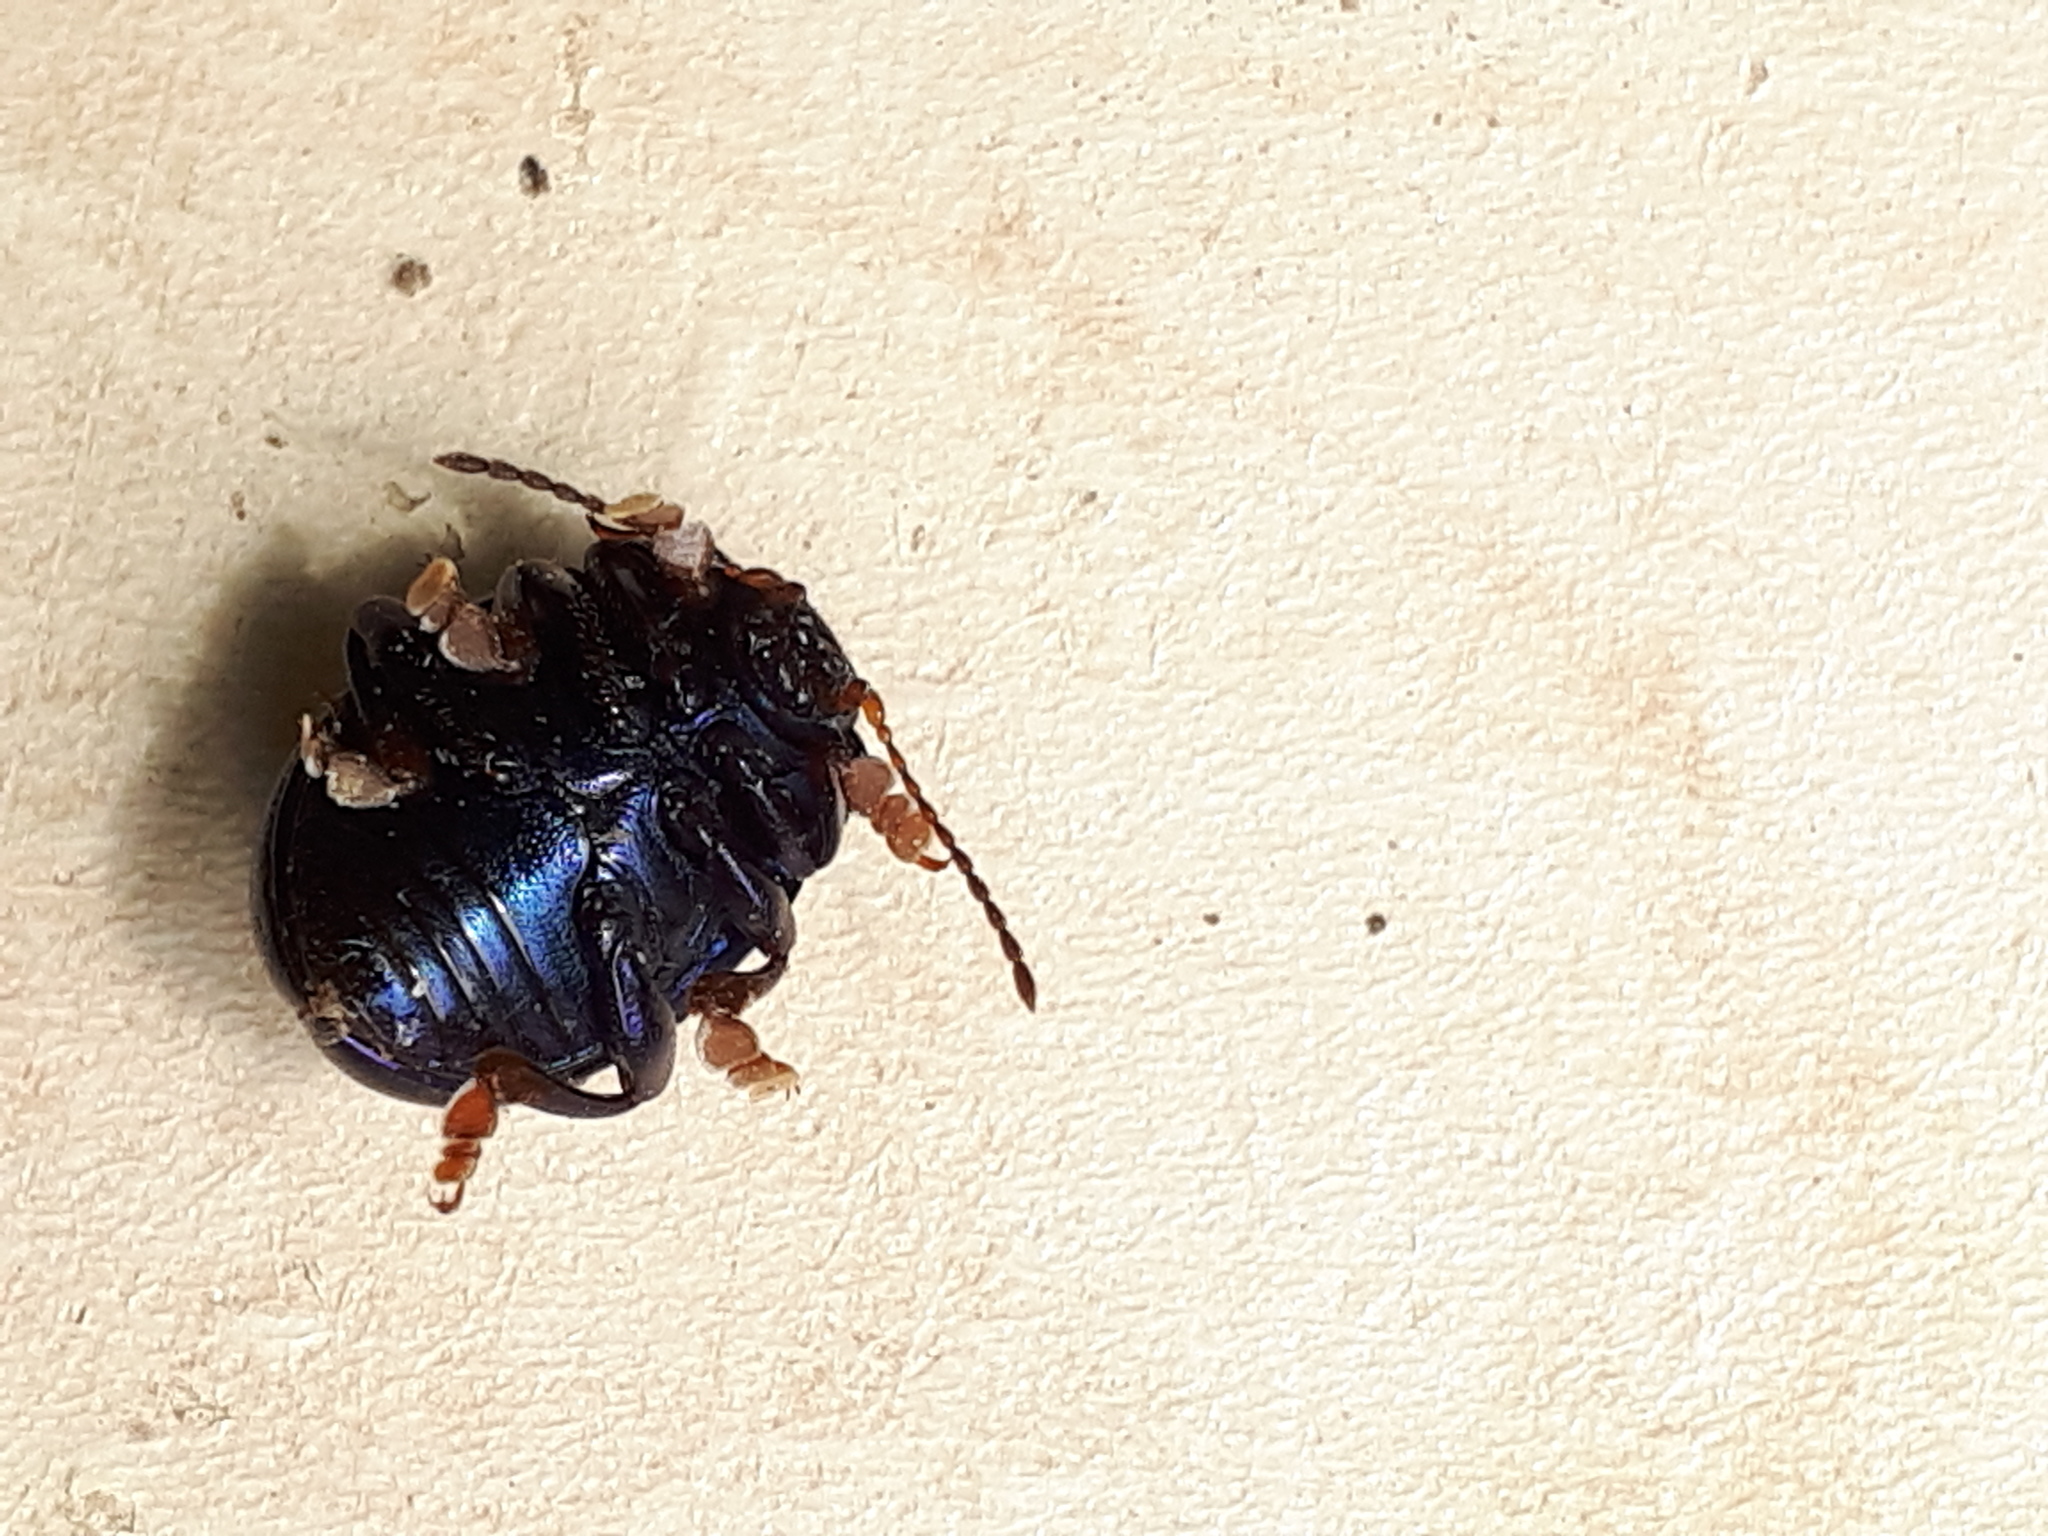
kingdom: Animalia
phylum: Arthropoda
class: Insecta
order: Coleoptera
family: Chrysomelidae
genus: Chrysolina
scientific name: Chrysolina sturmi
